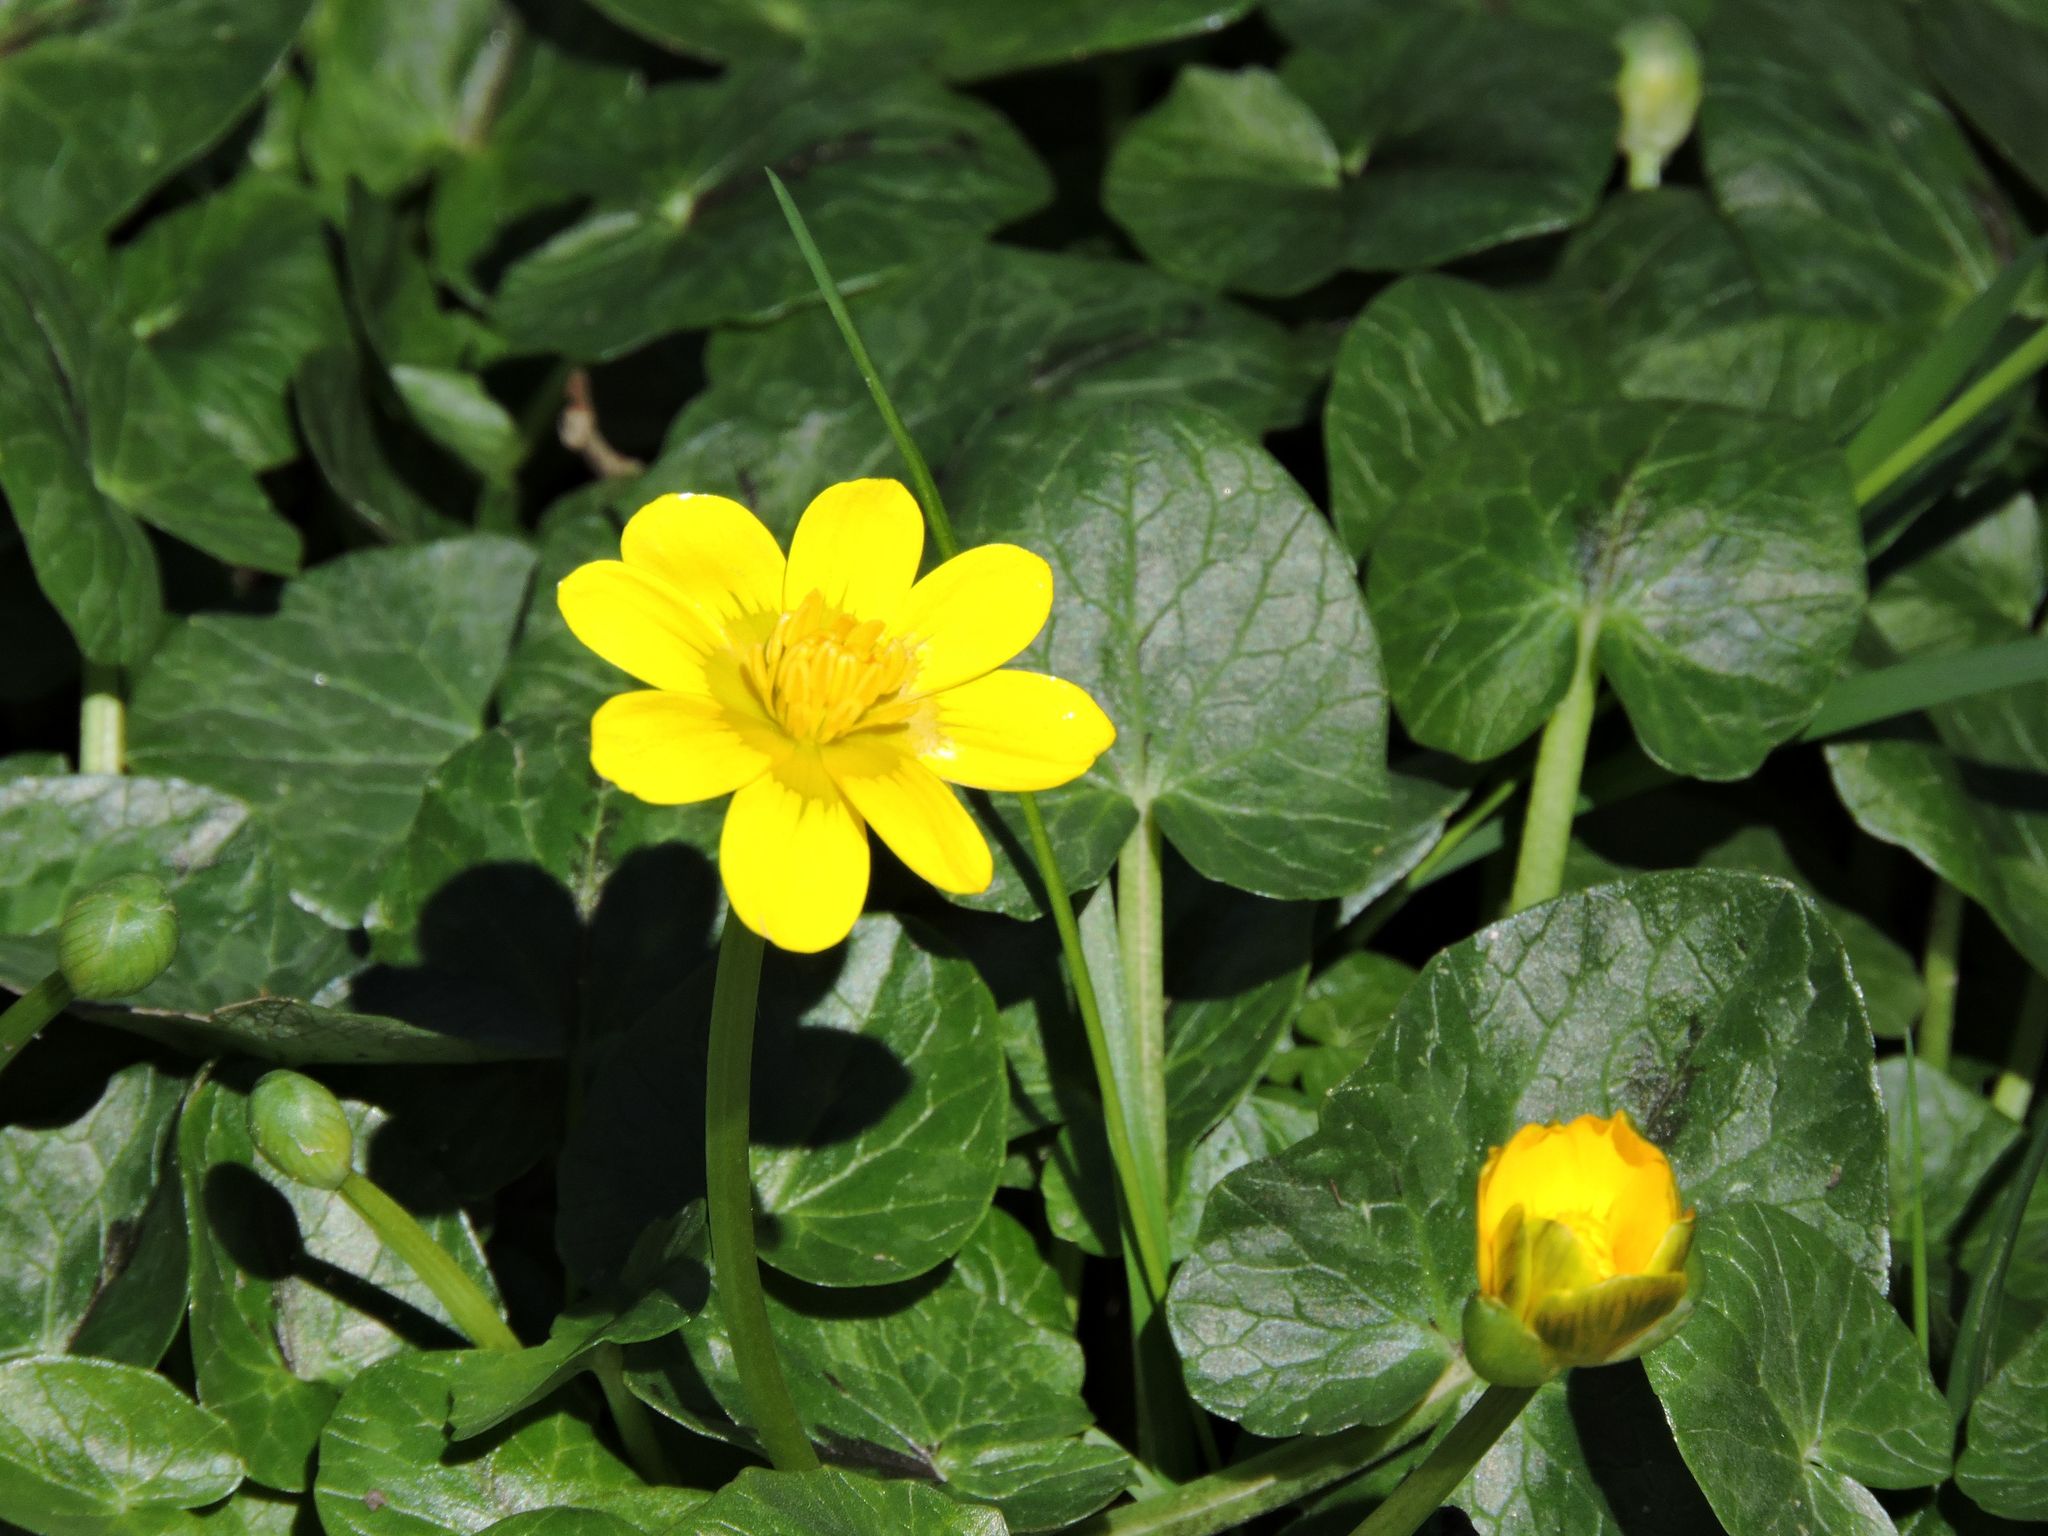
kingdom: Plantae
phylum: Tracheophyta
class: Magnoliopsida
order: Ranunculales
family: Ranunculaceae
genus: Ficaria
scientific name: Ficaria verna
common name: Lesser celandine
